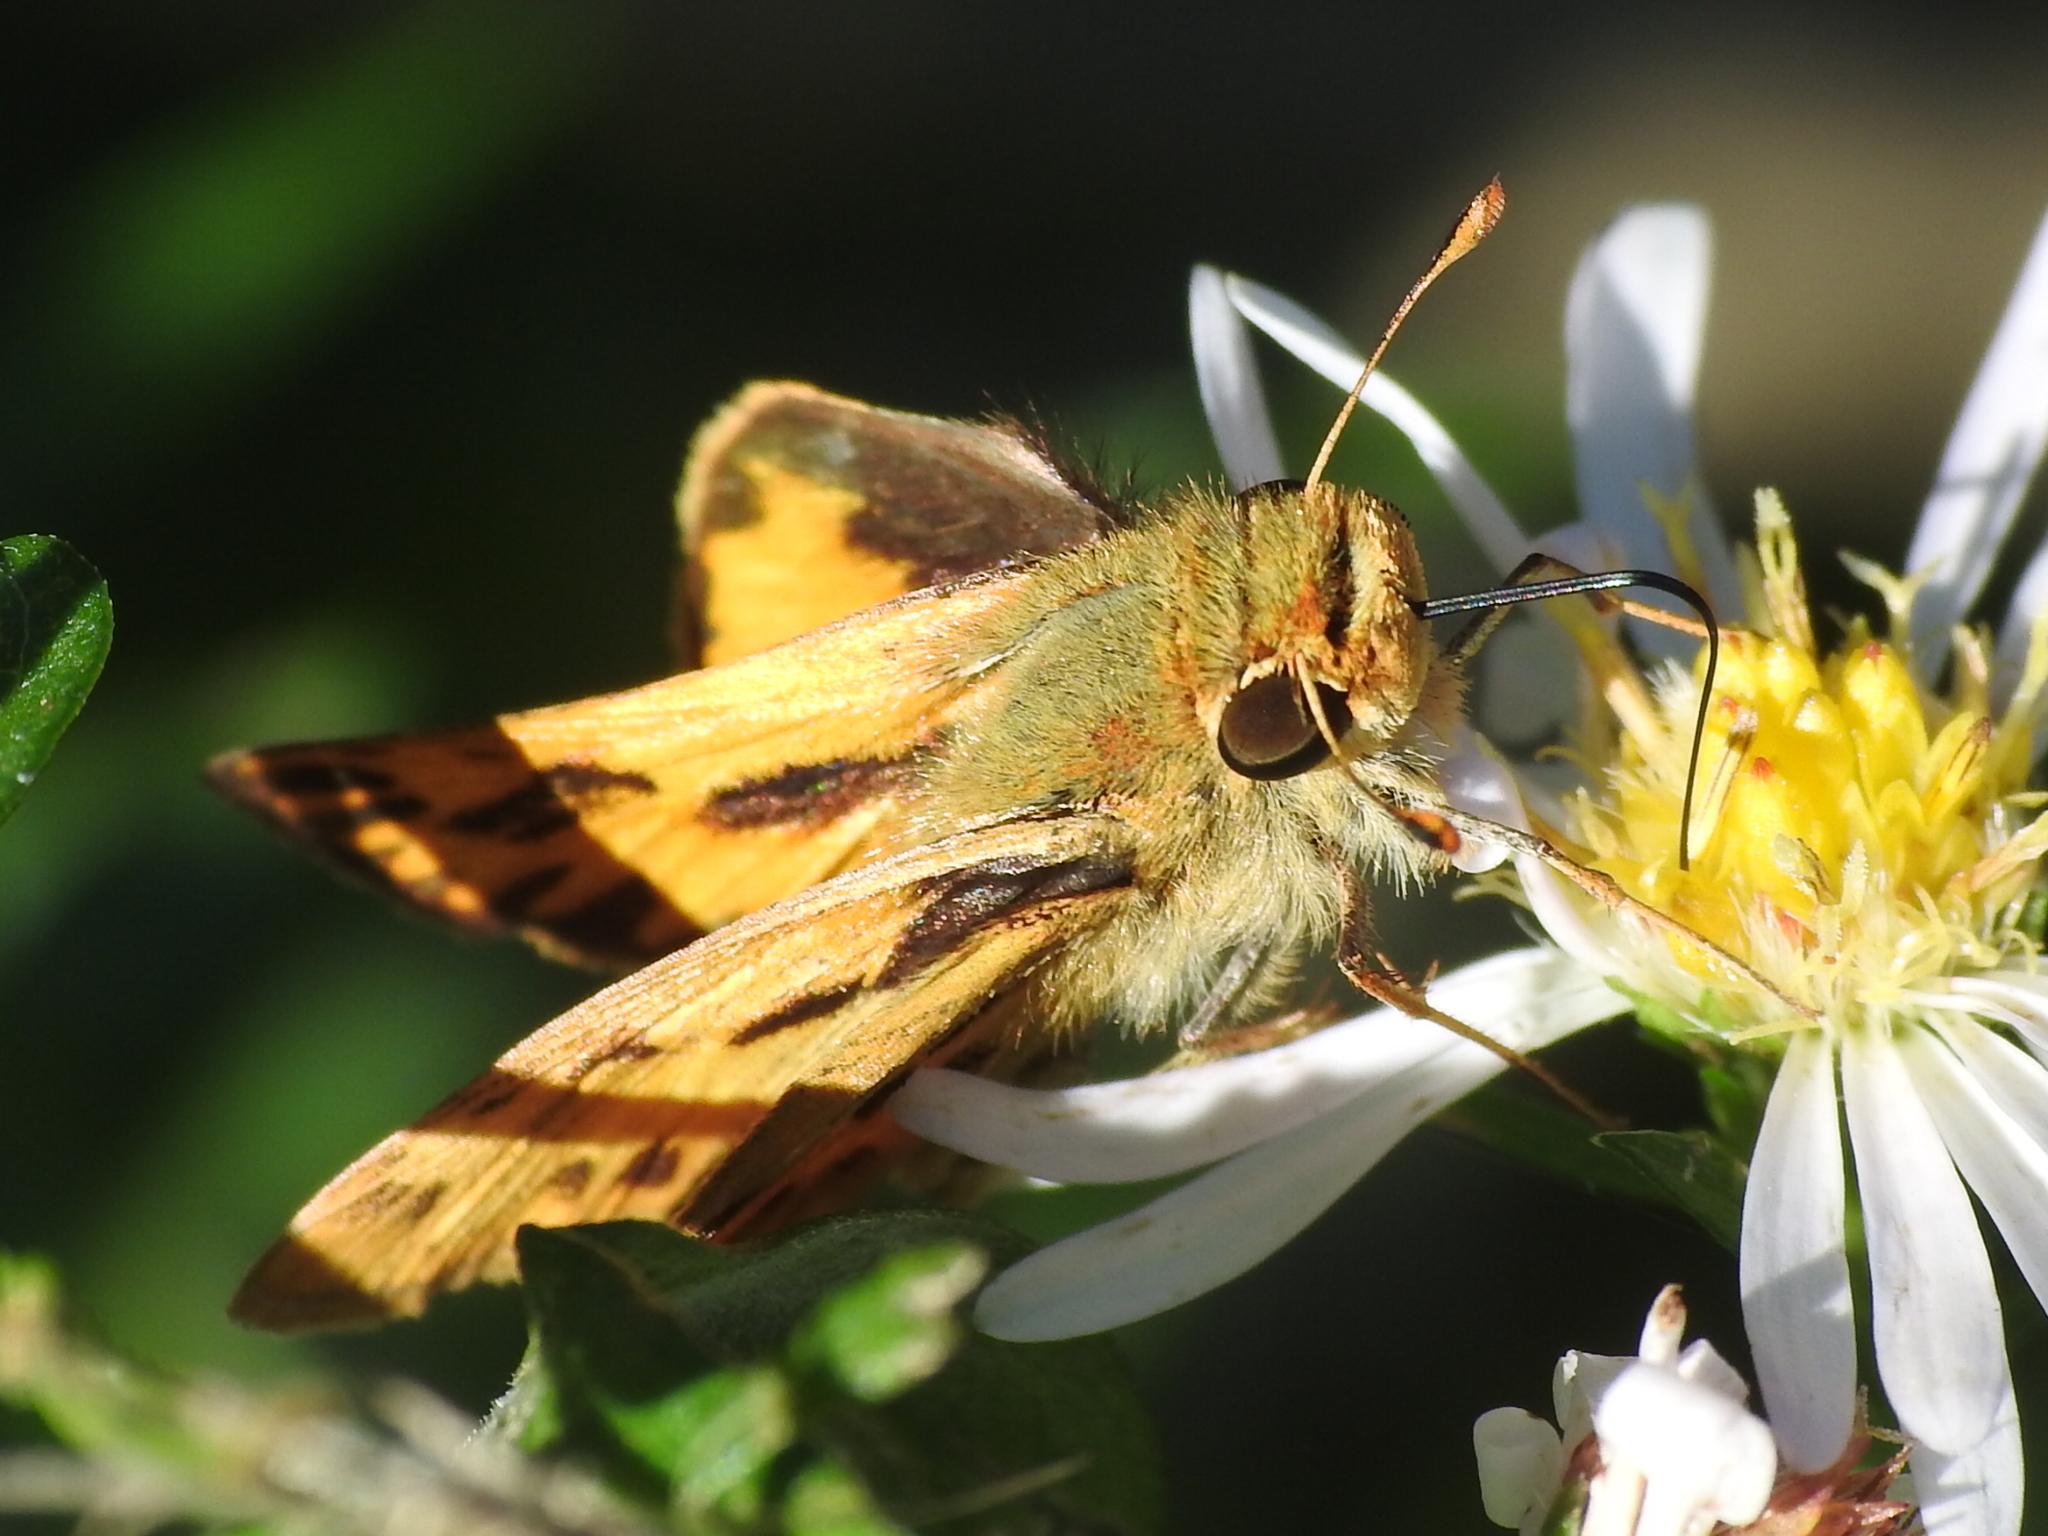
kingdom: Animalia
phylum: Arthropoda
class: Insecta
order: Lepidoptera
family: Hesperiidae
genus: Hylephila
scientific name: Hylephila phyleus
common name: Fiery skipper
